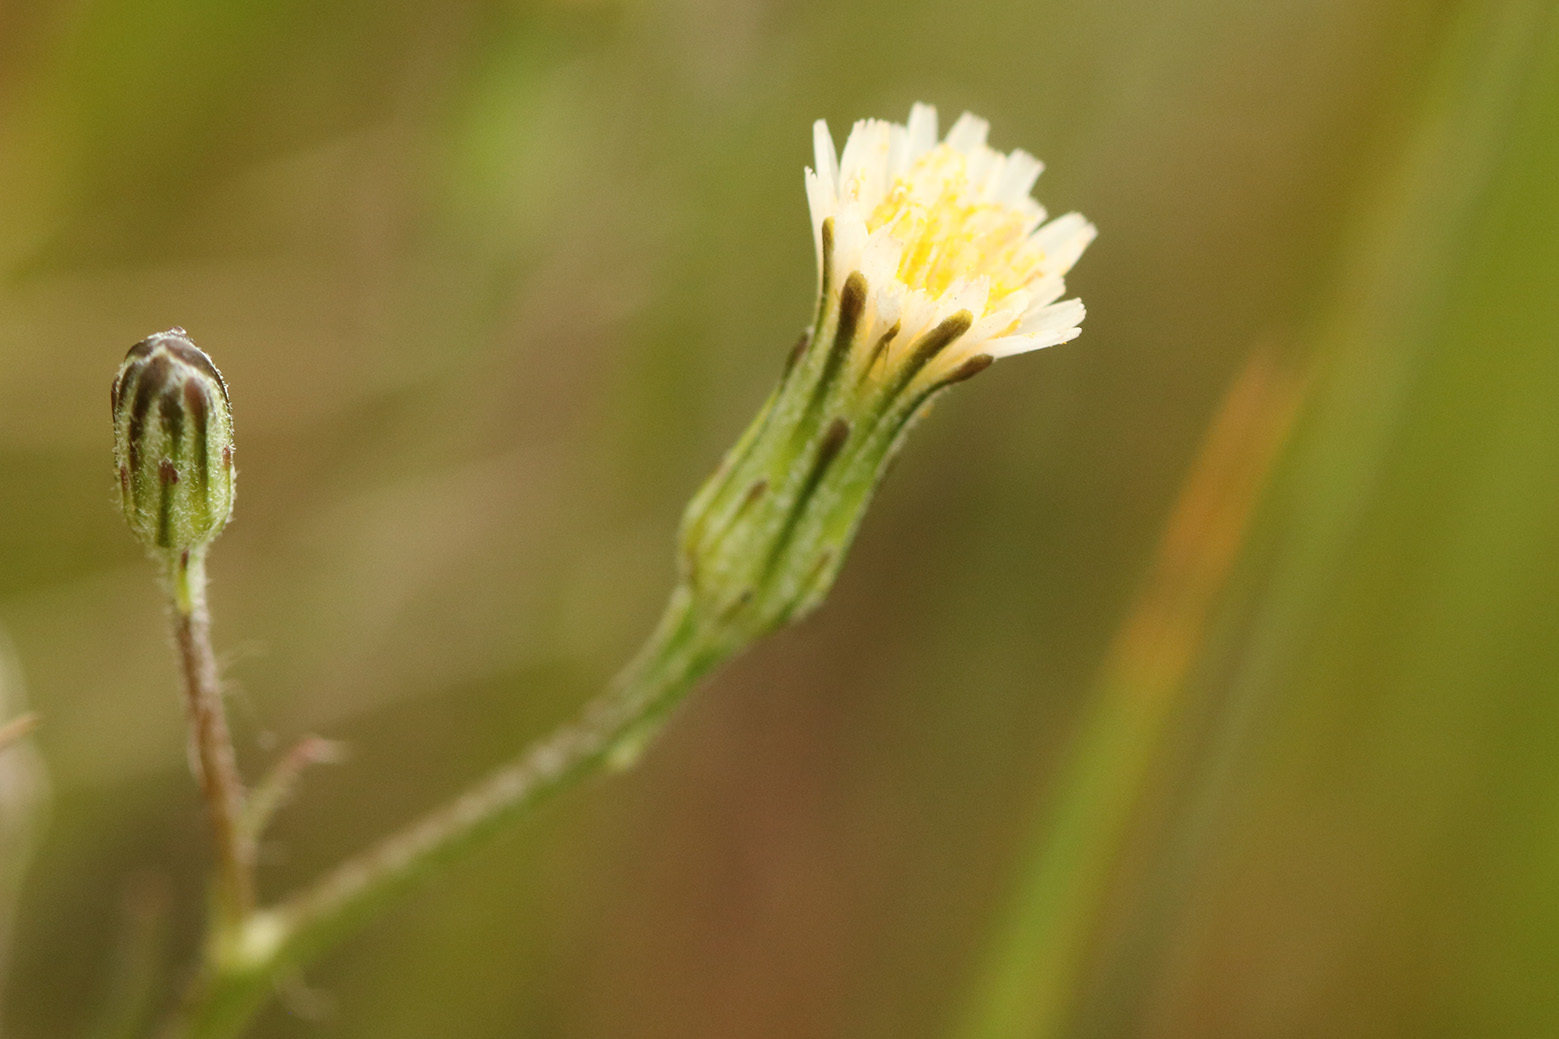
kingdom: Plantae
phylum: Tracheophyta
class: Magnoliopsida
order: Asterales
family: Asteraceae
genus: Hypochaeris
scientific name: Hypochaeris albiflora
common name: White flatweed
